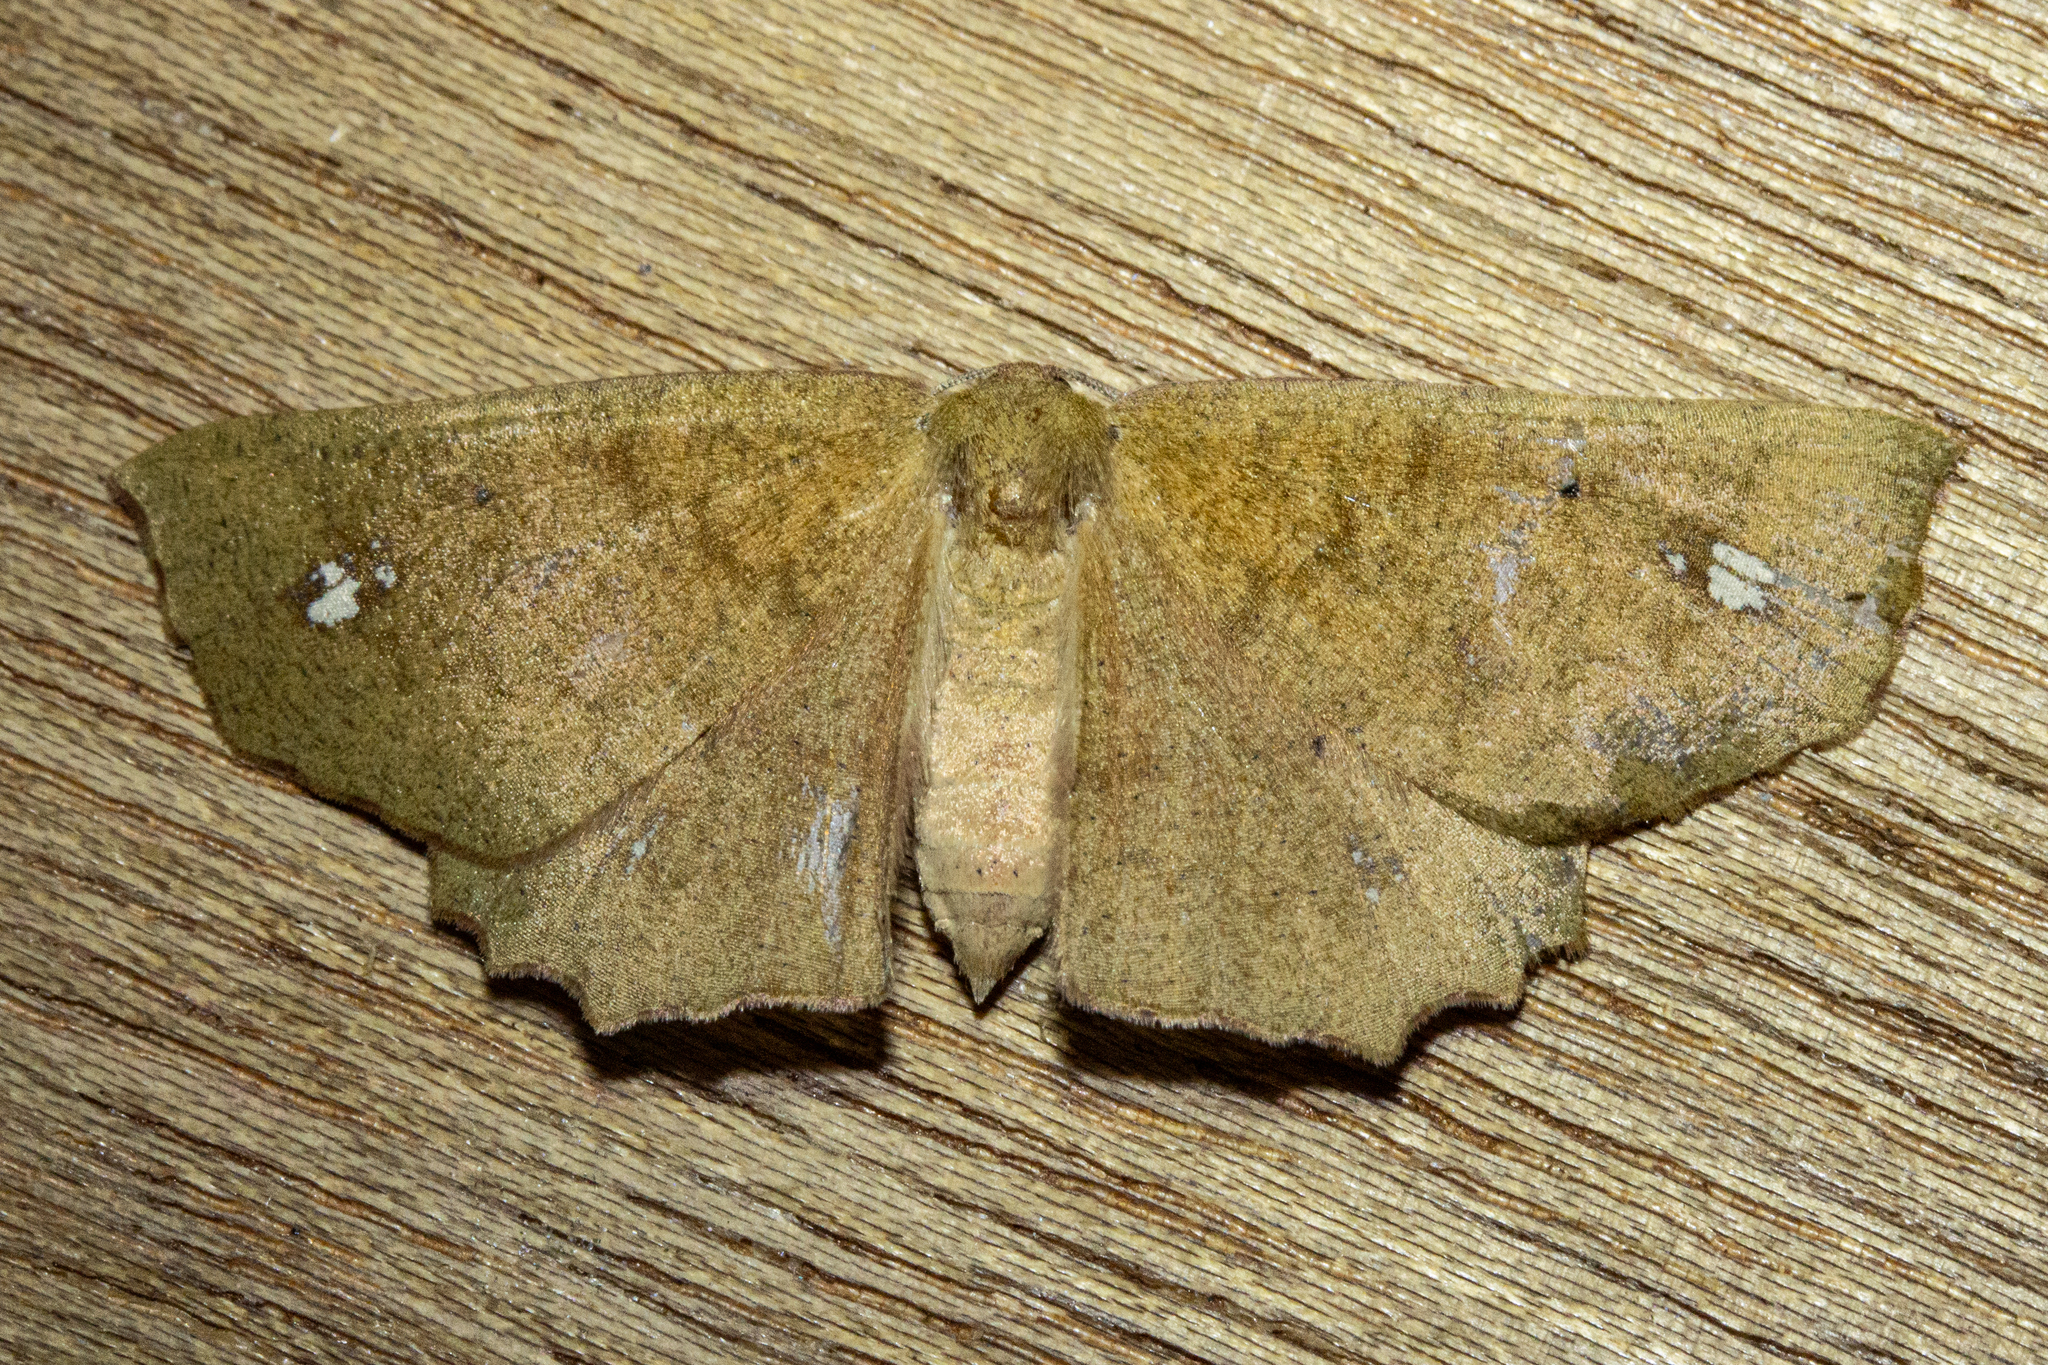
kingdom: Animalia
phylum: Arthropoda
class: Insecta
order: Lepidoptera
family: Geometridae
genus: Xyridacma
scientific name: Xyridacma ustaria
